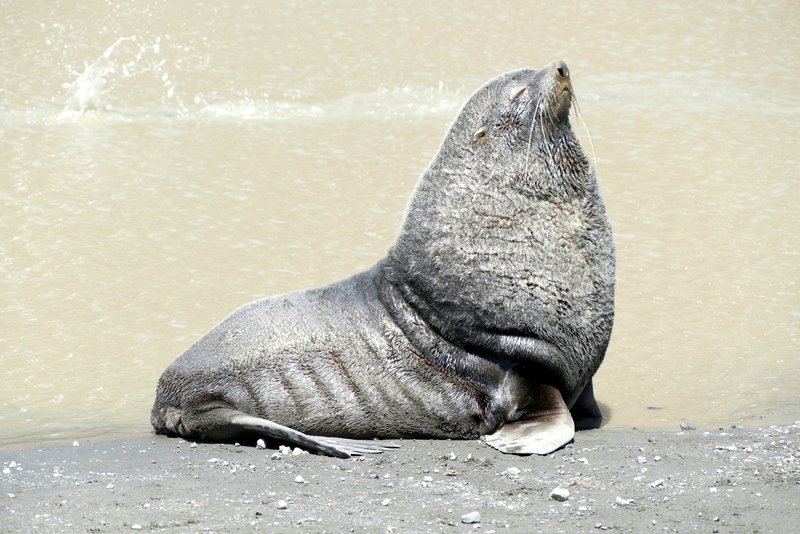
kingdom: Animalia
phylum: Chordata
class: Mammalia
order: Carnivora
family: Otariidae
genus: Arctocephalus
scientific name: Arctocephalus gazella
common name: Antarctic fur seal
